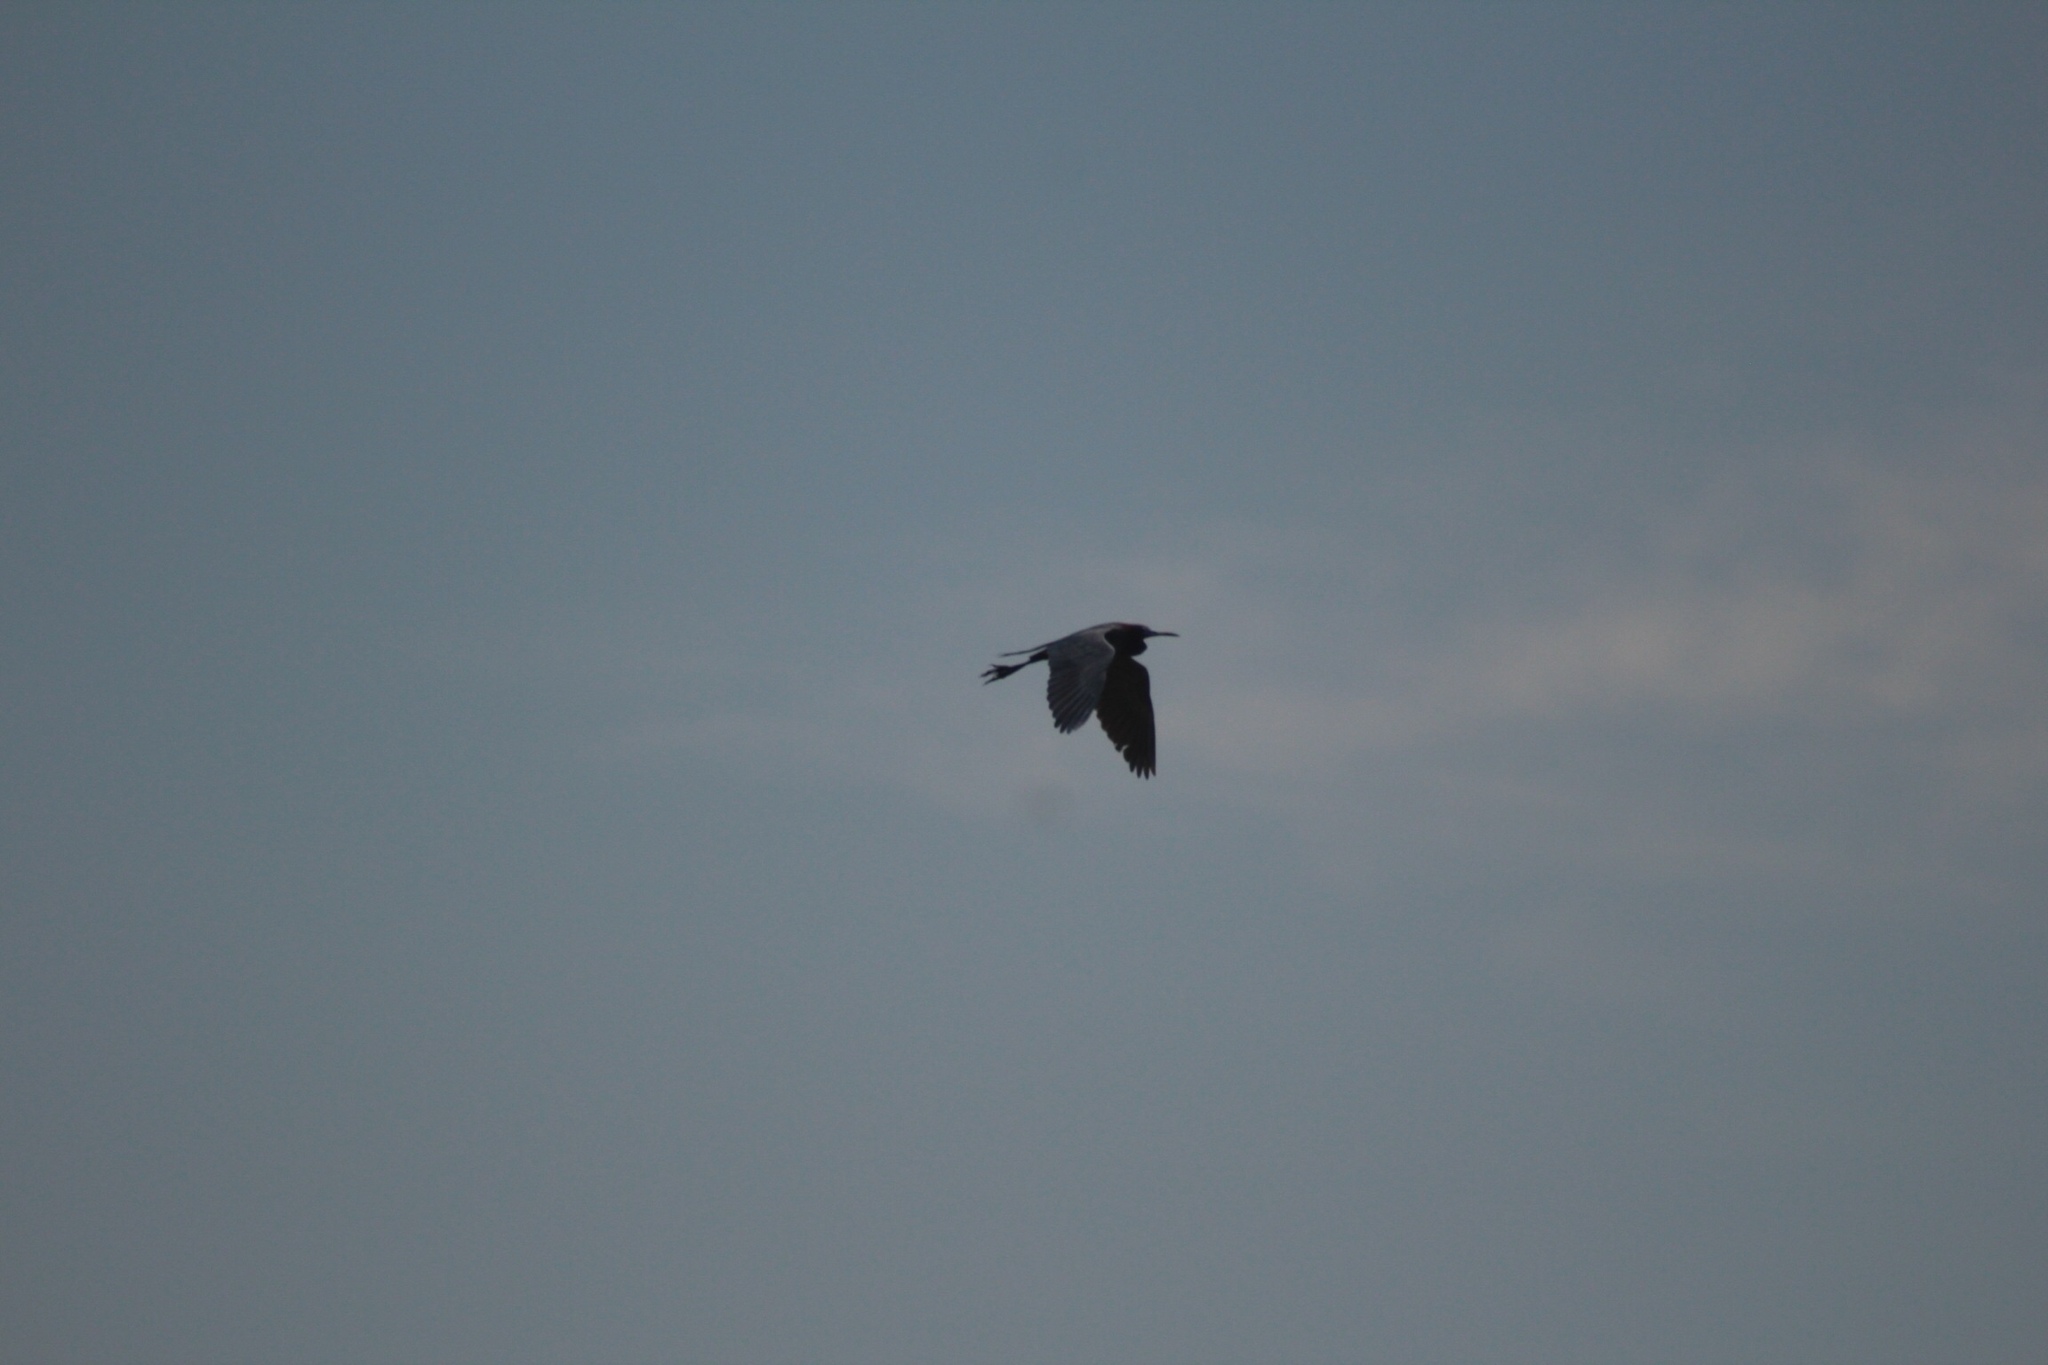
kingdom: Animalia
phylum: Chordata
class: Aves
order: Pelecaniformes
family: Ardeidae
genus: Egretta
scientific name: Egretta caerulea
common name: Little blue heron
